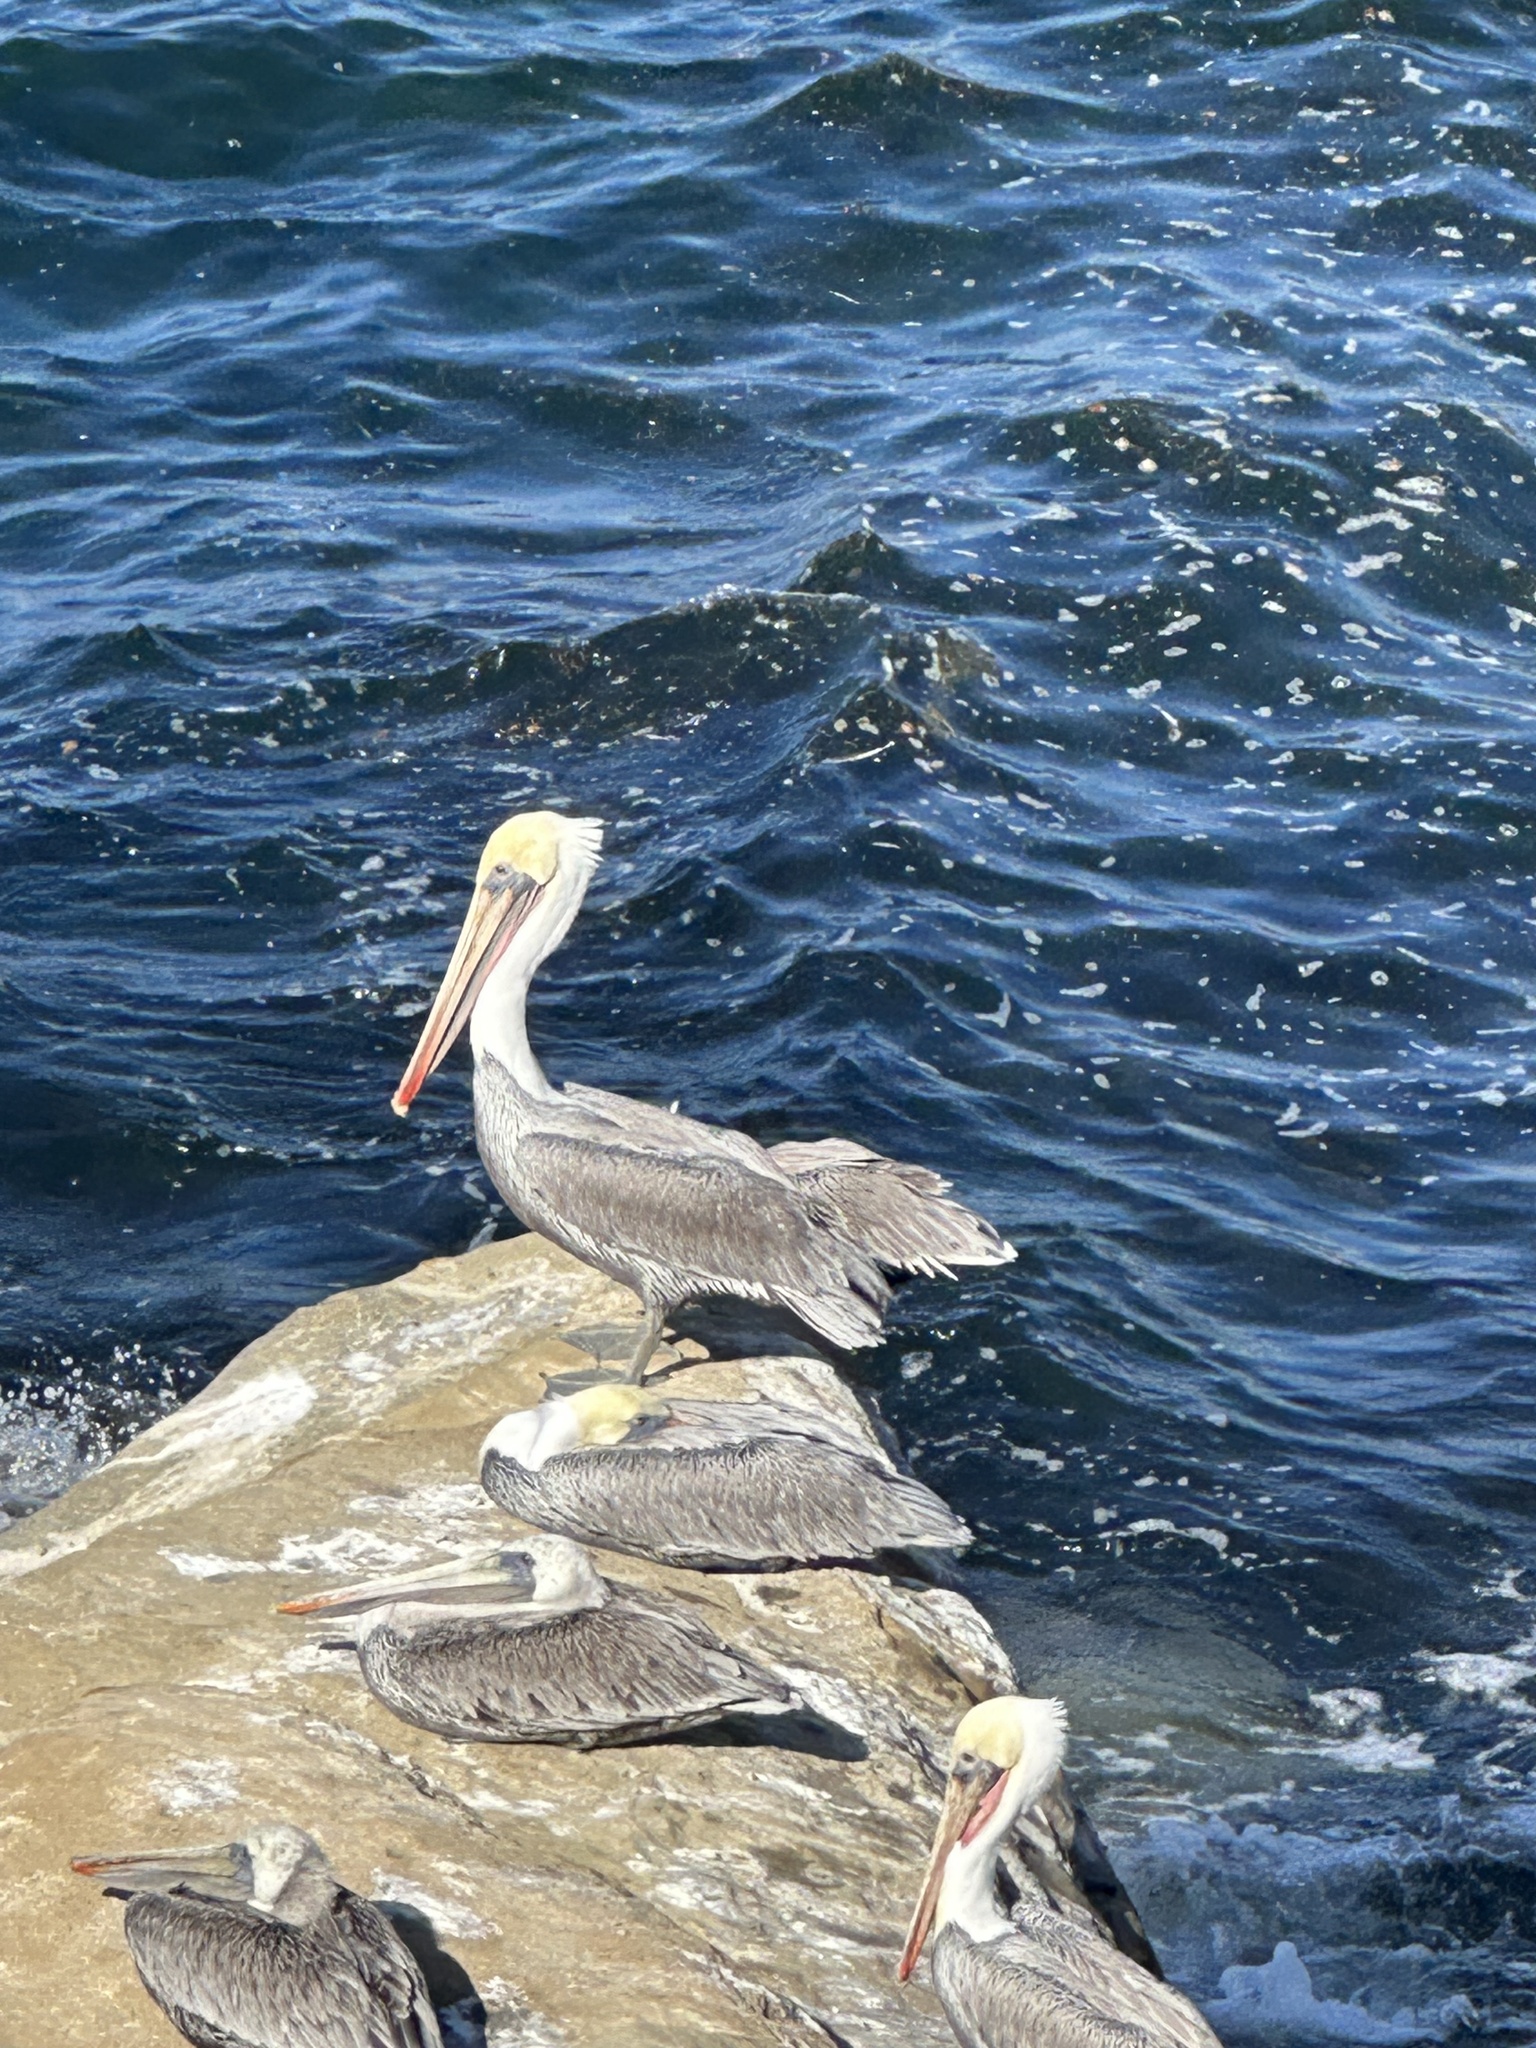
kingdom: Animalia
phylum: Chordata
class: Aves
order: Pelecaniformes
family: Pelecanidae
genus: Pelecanus
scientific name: Pelecanus occidentalis
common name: Brown pelican
